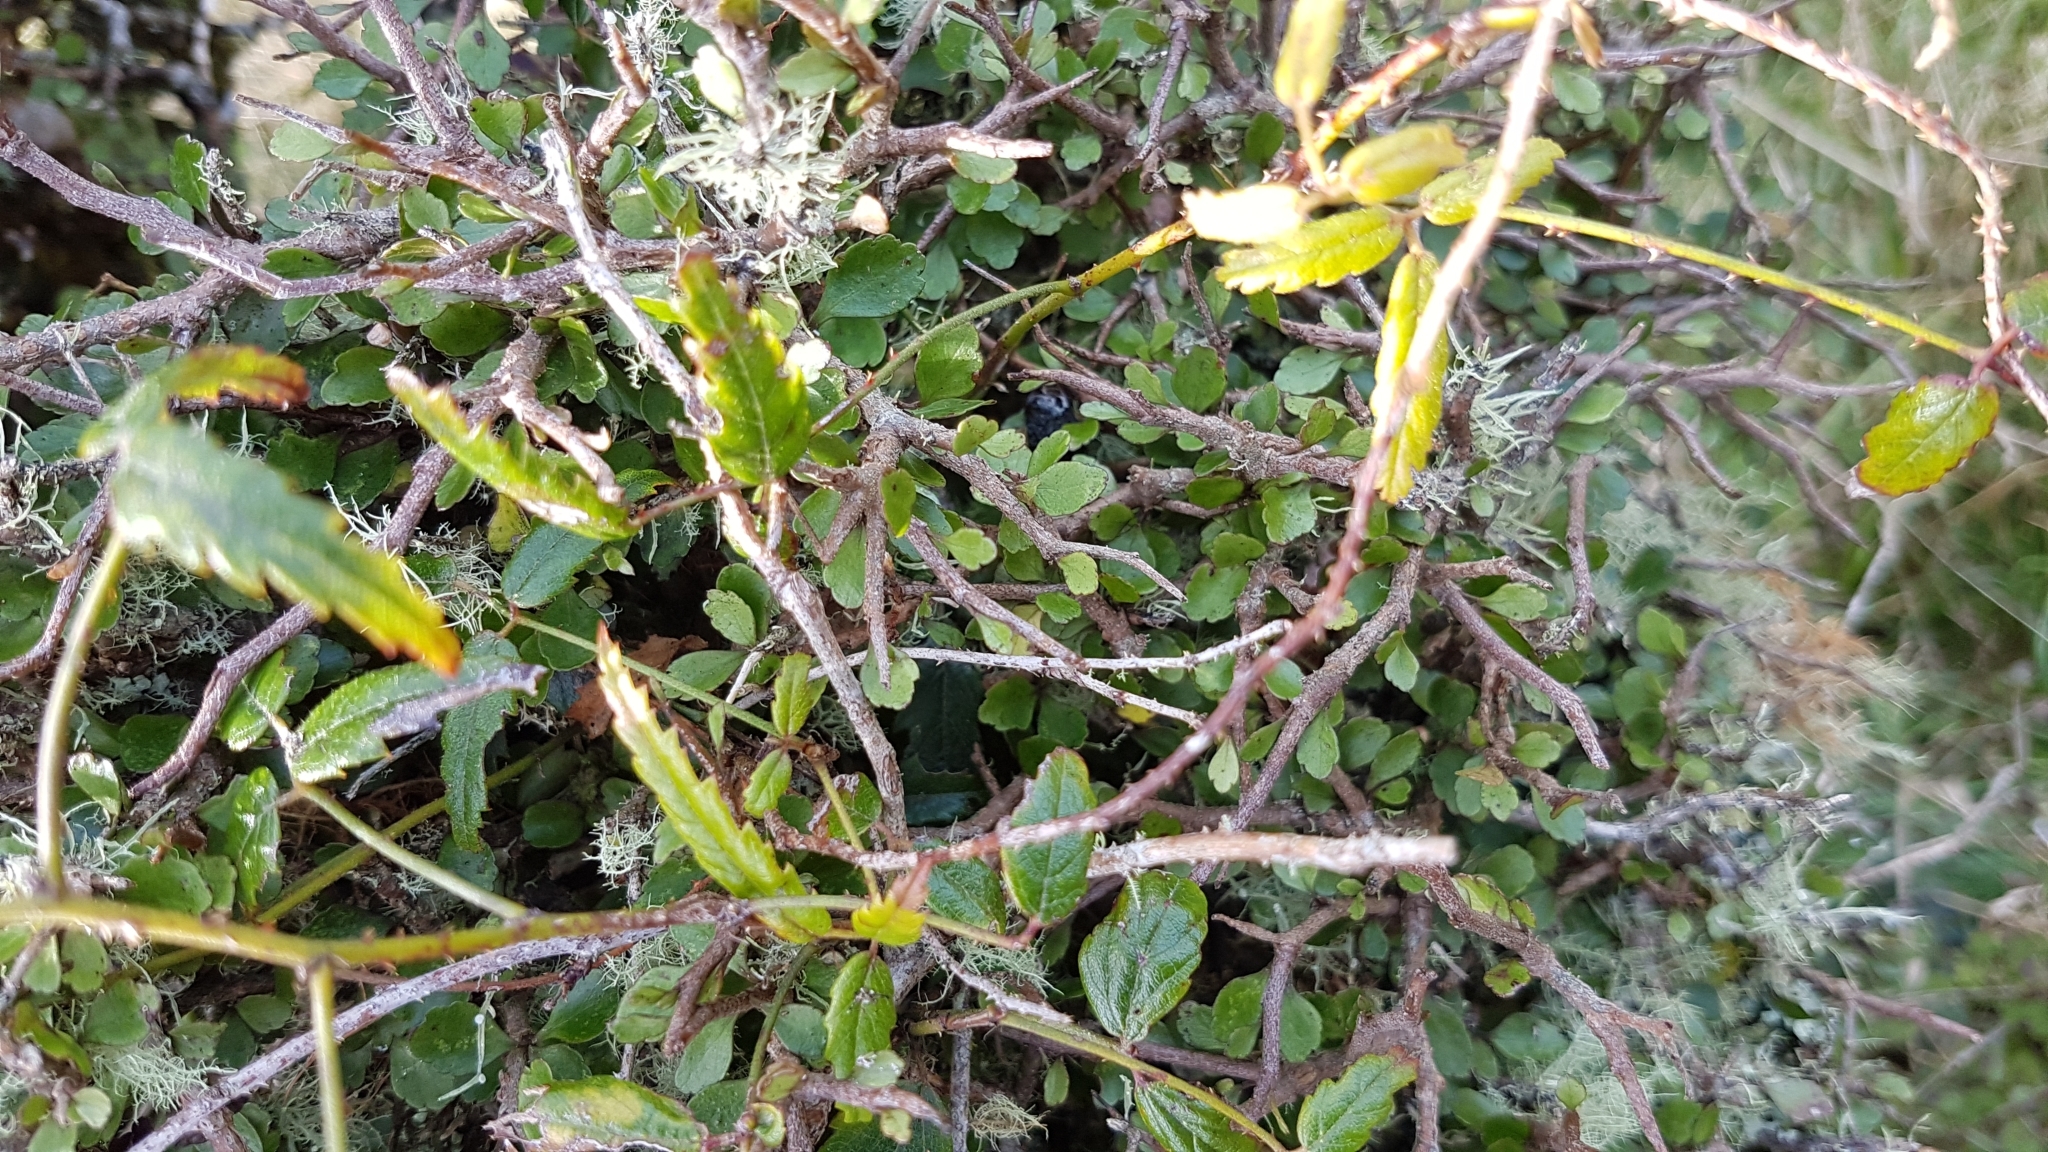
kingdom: Plantae
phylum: Tracheophyta
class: Magnoliopsida
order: Rosales
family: Rosaceae
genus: Rubus
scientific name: Rubus schmidelioides
